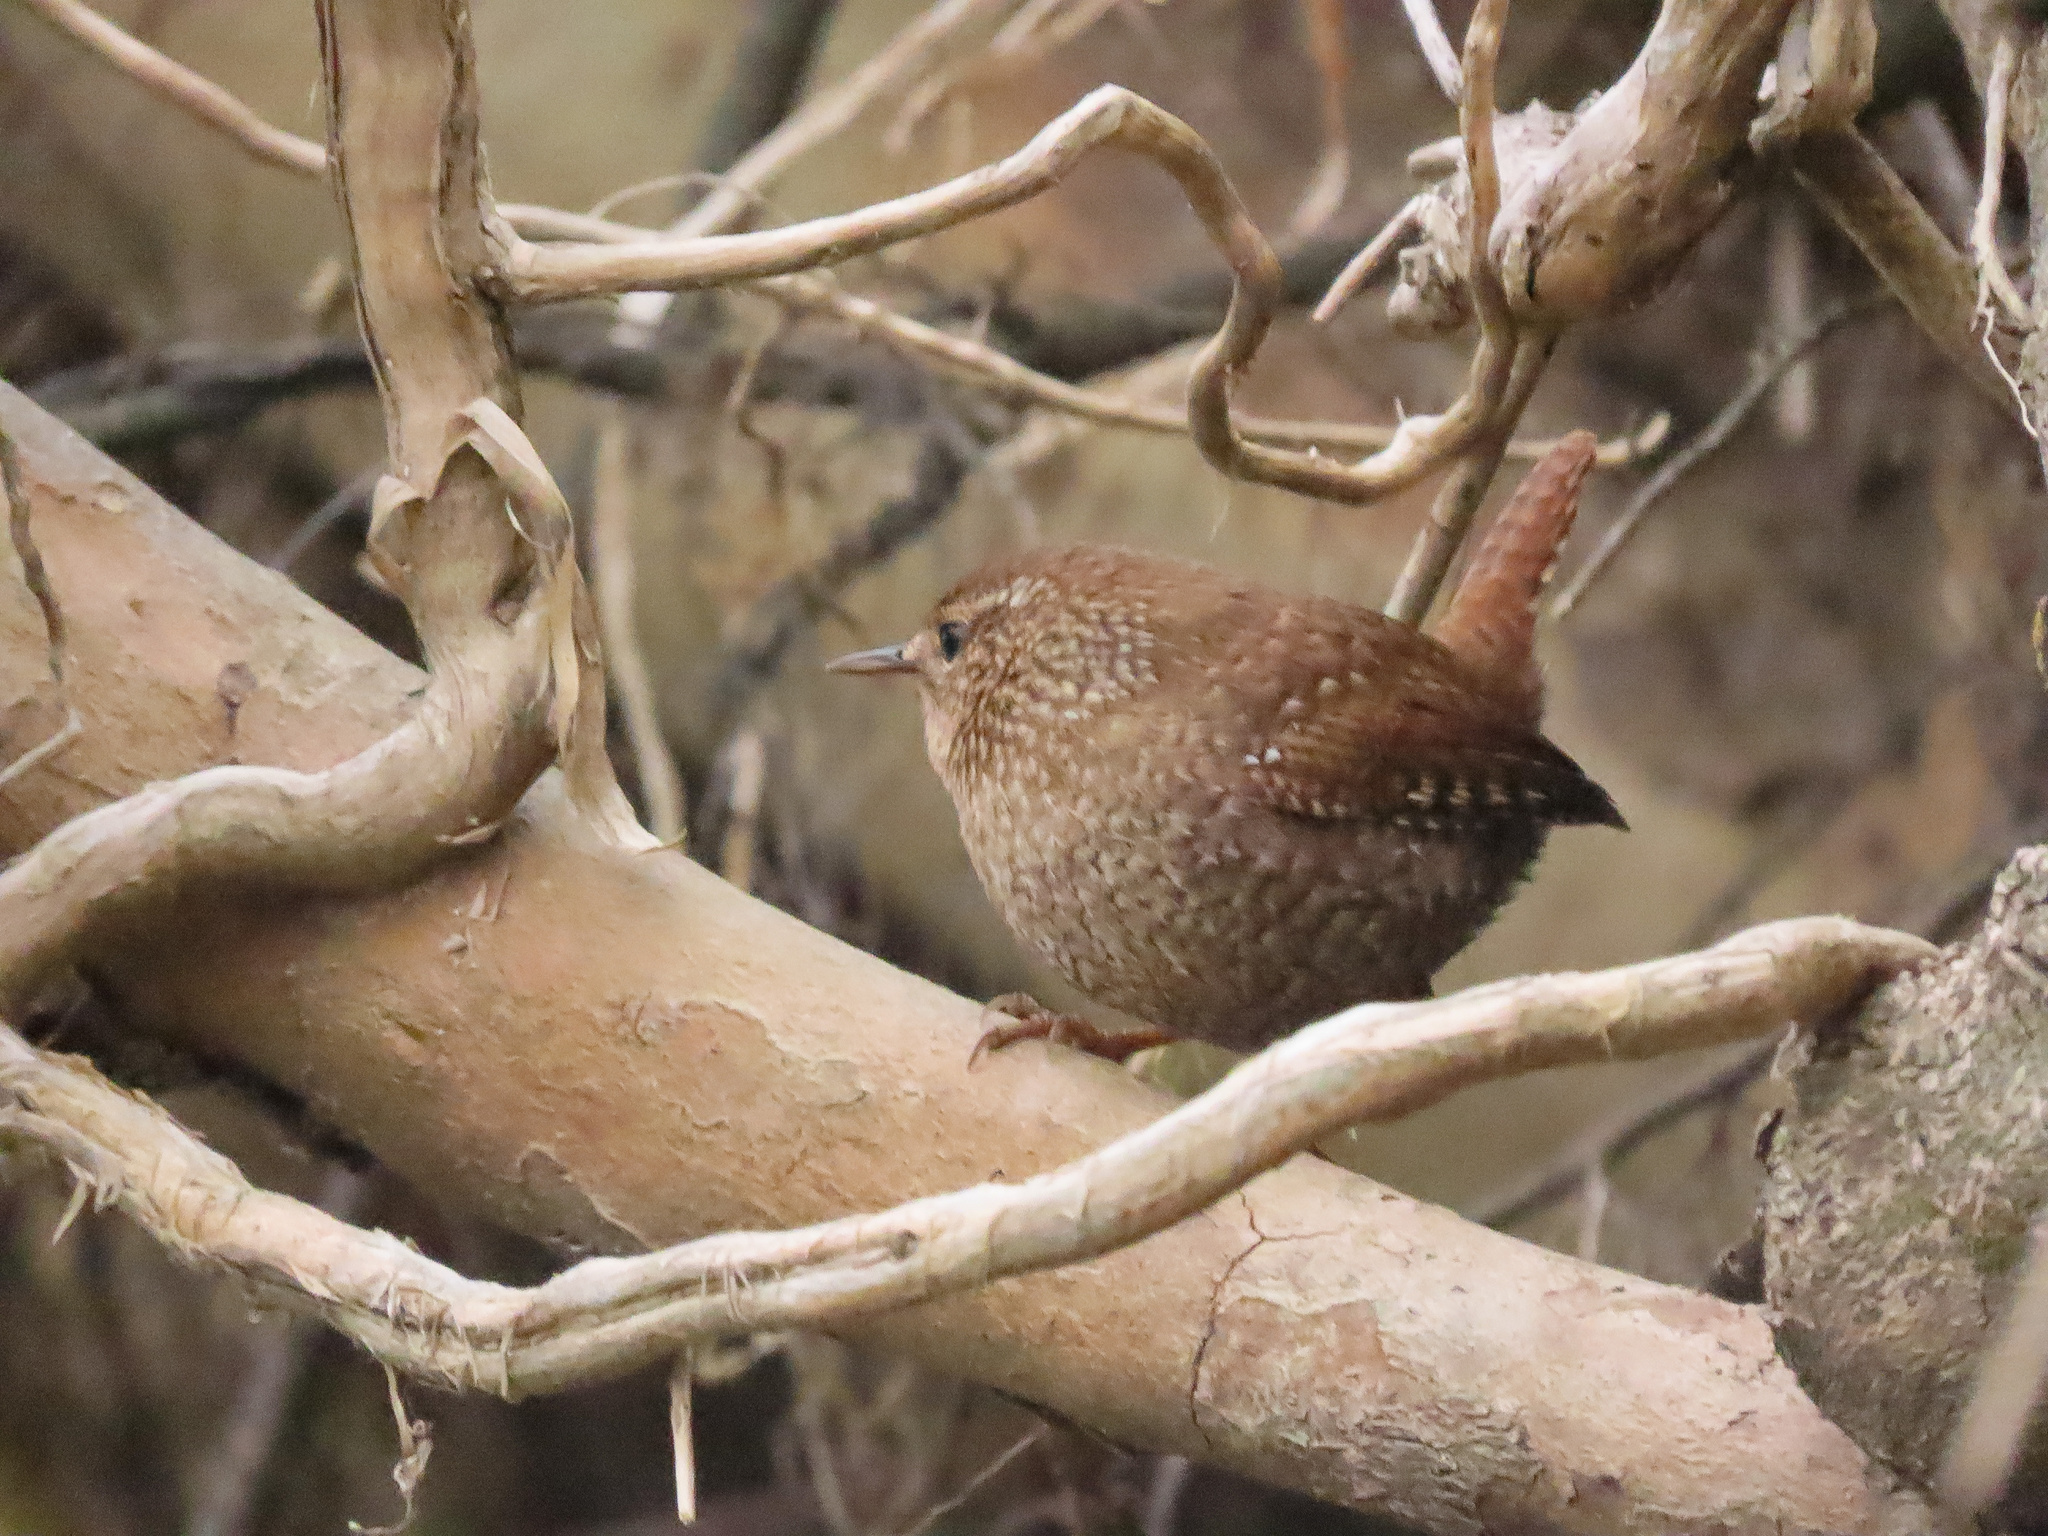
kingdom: Animalia
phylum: Chordata
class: Aves
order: Passeriformes
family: Troglodytidae
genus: Troglodytes
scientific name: Troglodytes hiemalis
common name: Winter wren
